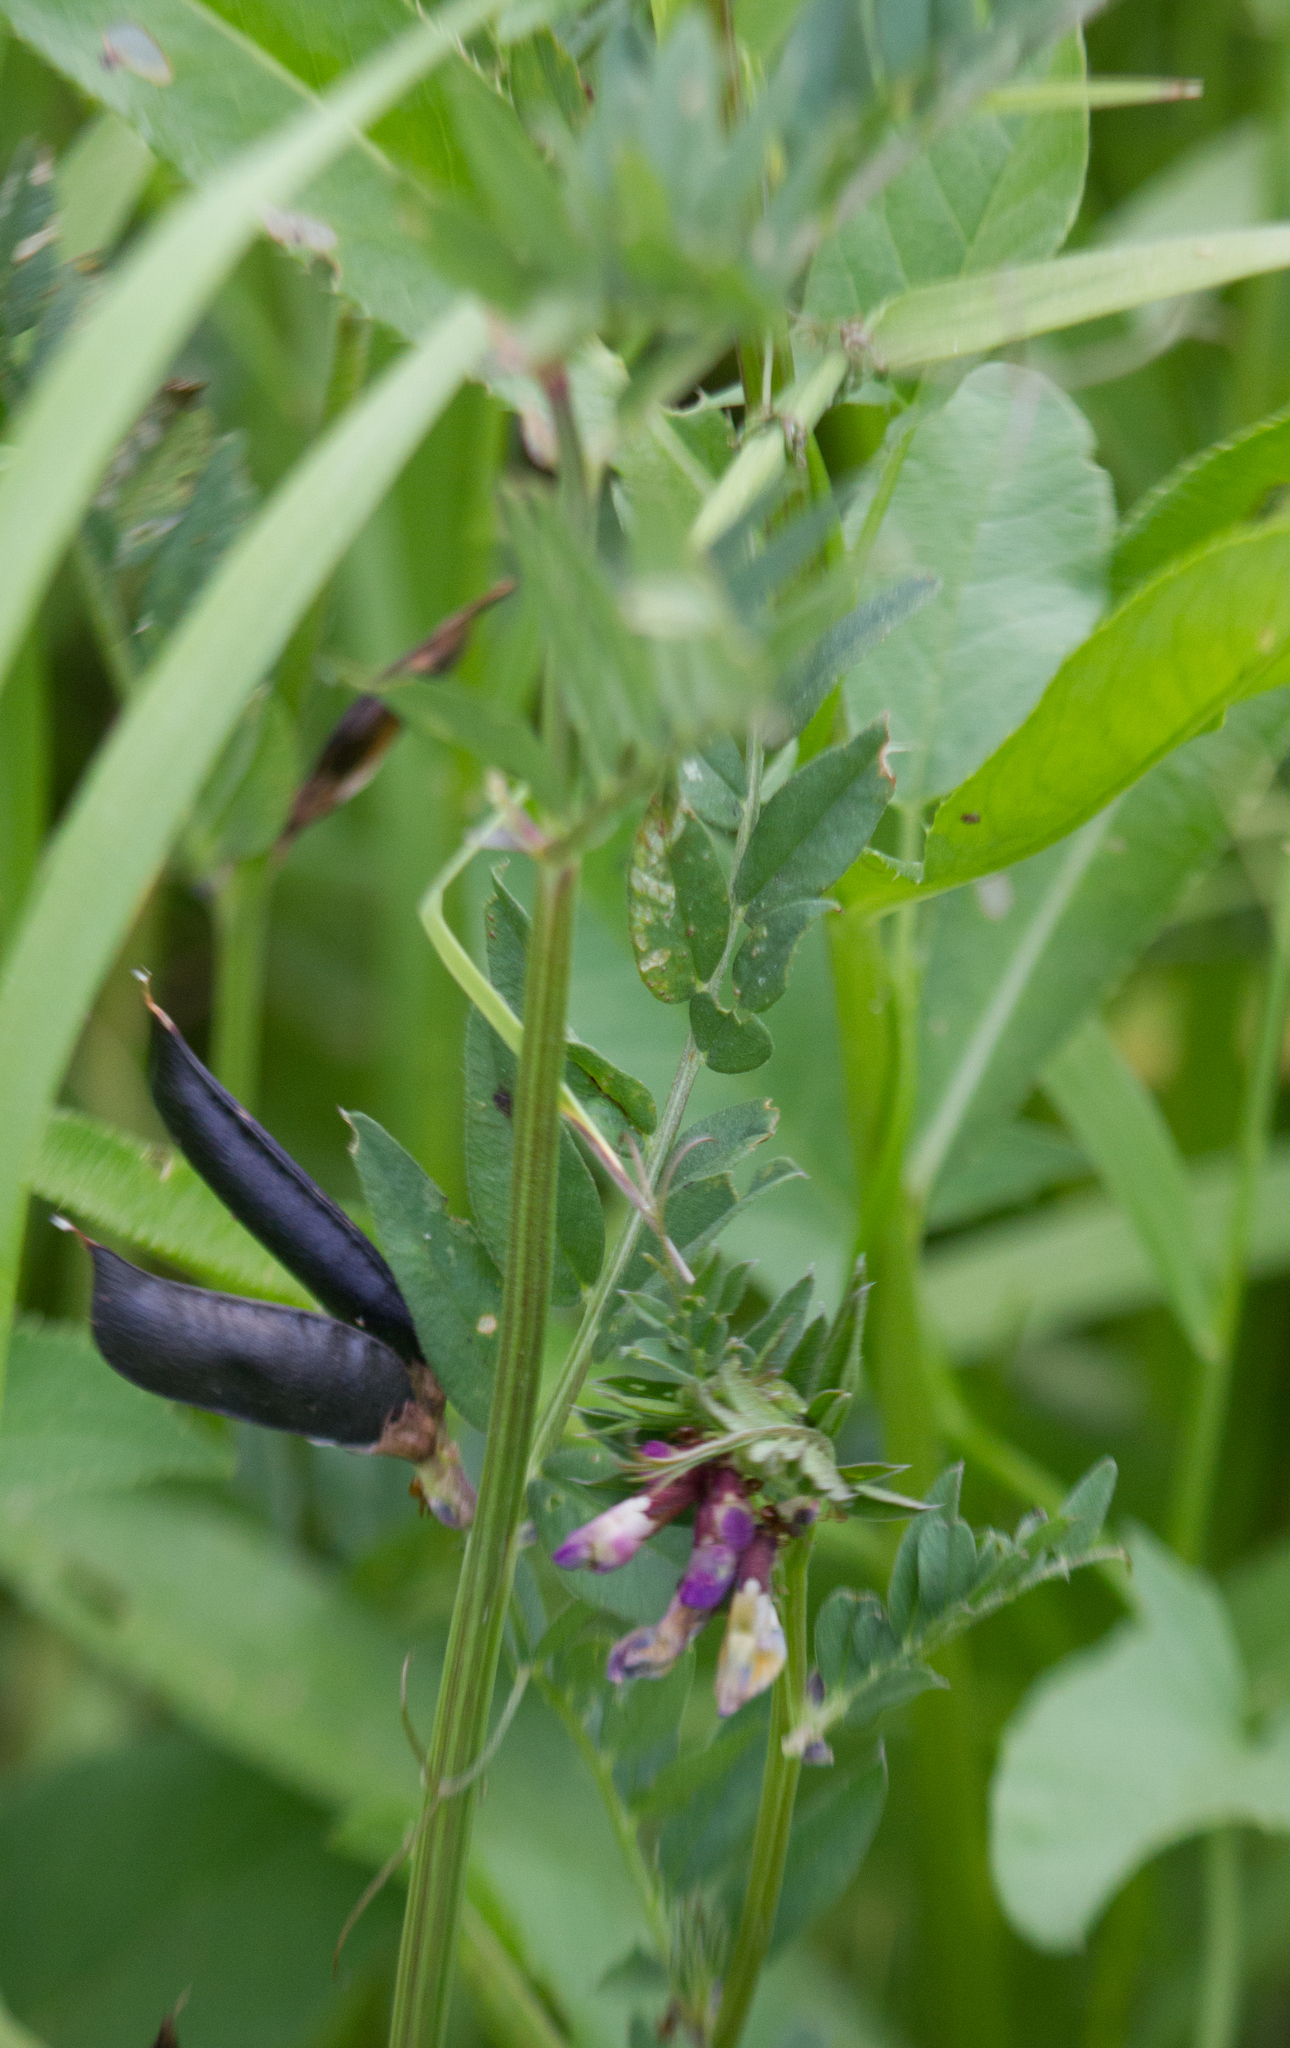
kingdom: Plantae
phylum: Tracheophyta
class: Magnoliopsida
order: Fabales
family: Fabaceae
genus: Vicia
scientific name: Vicia sepium
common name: Bush vetch
